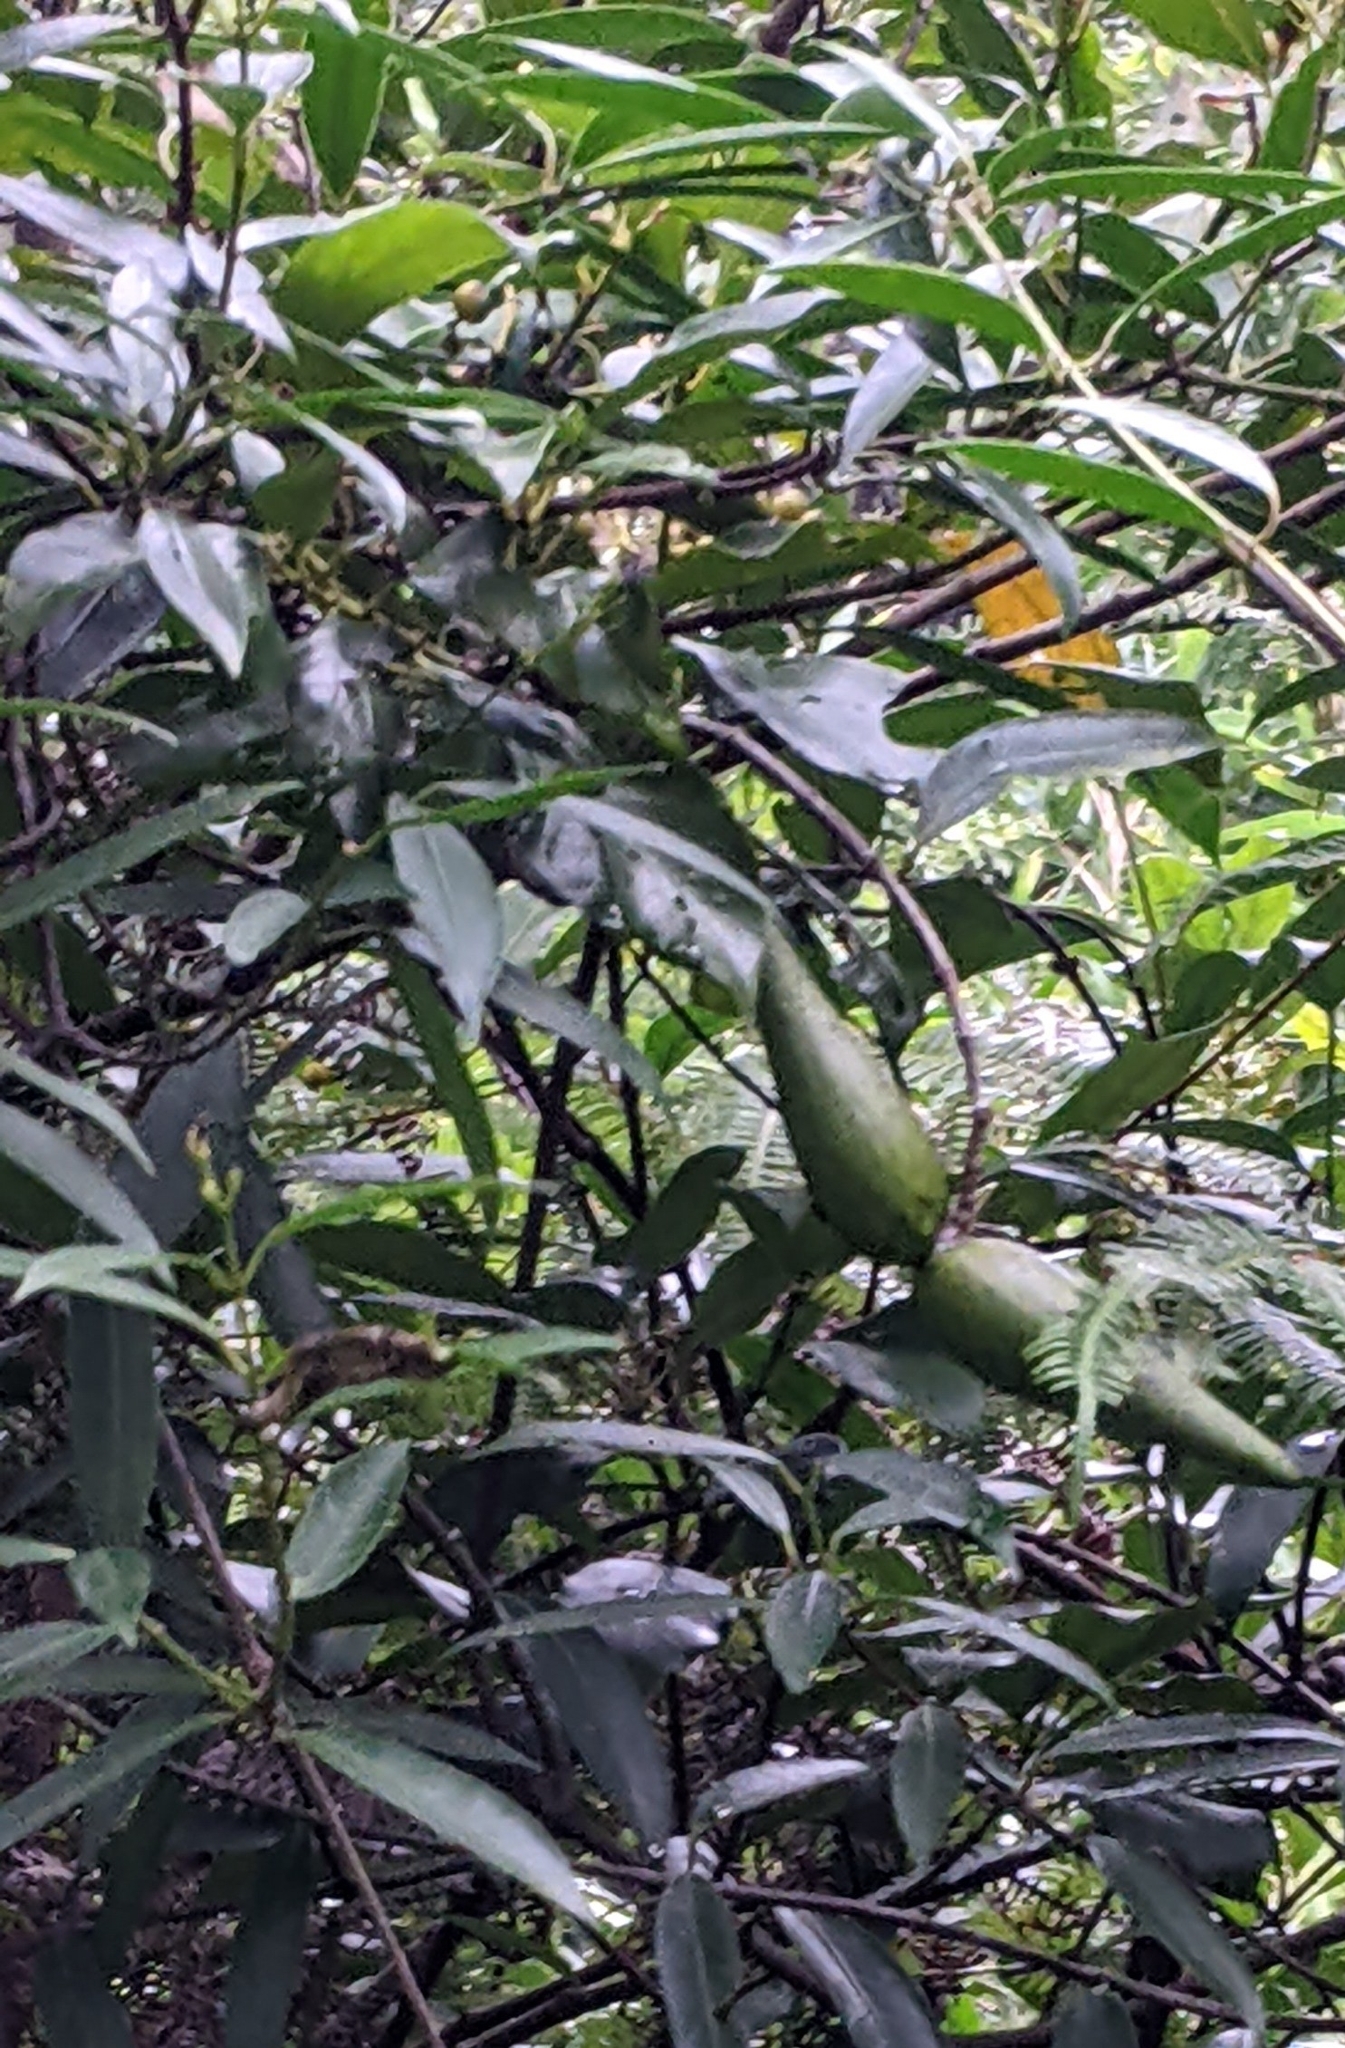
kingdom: Plantae
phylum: Tracheophyta
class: Magnoliopsida
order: Gentianales
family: Apocynaceae
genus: Anodendron
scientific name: Anodendron affine
